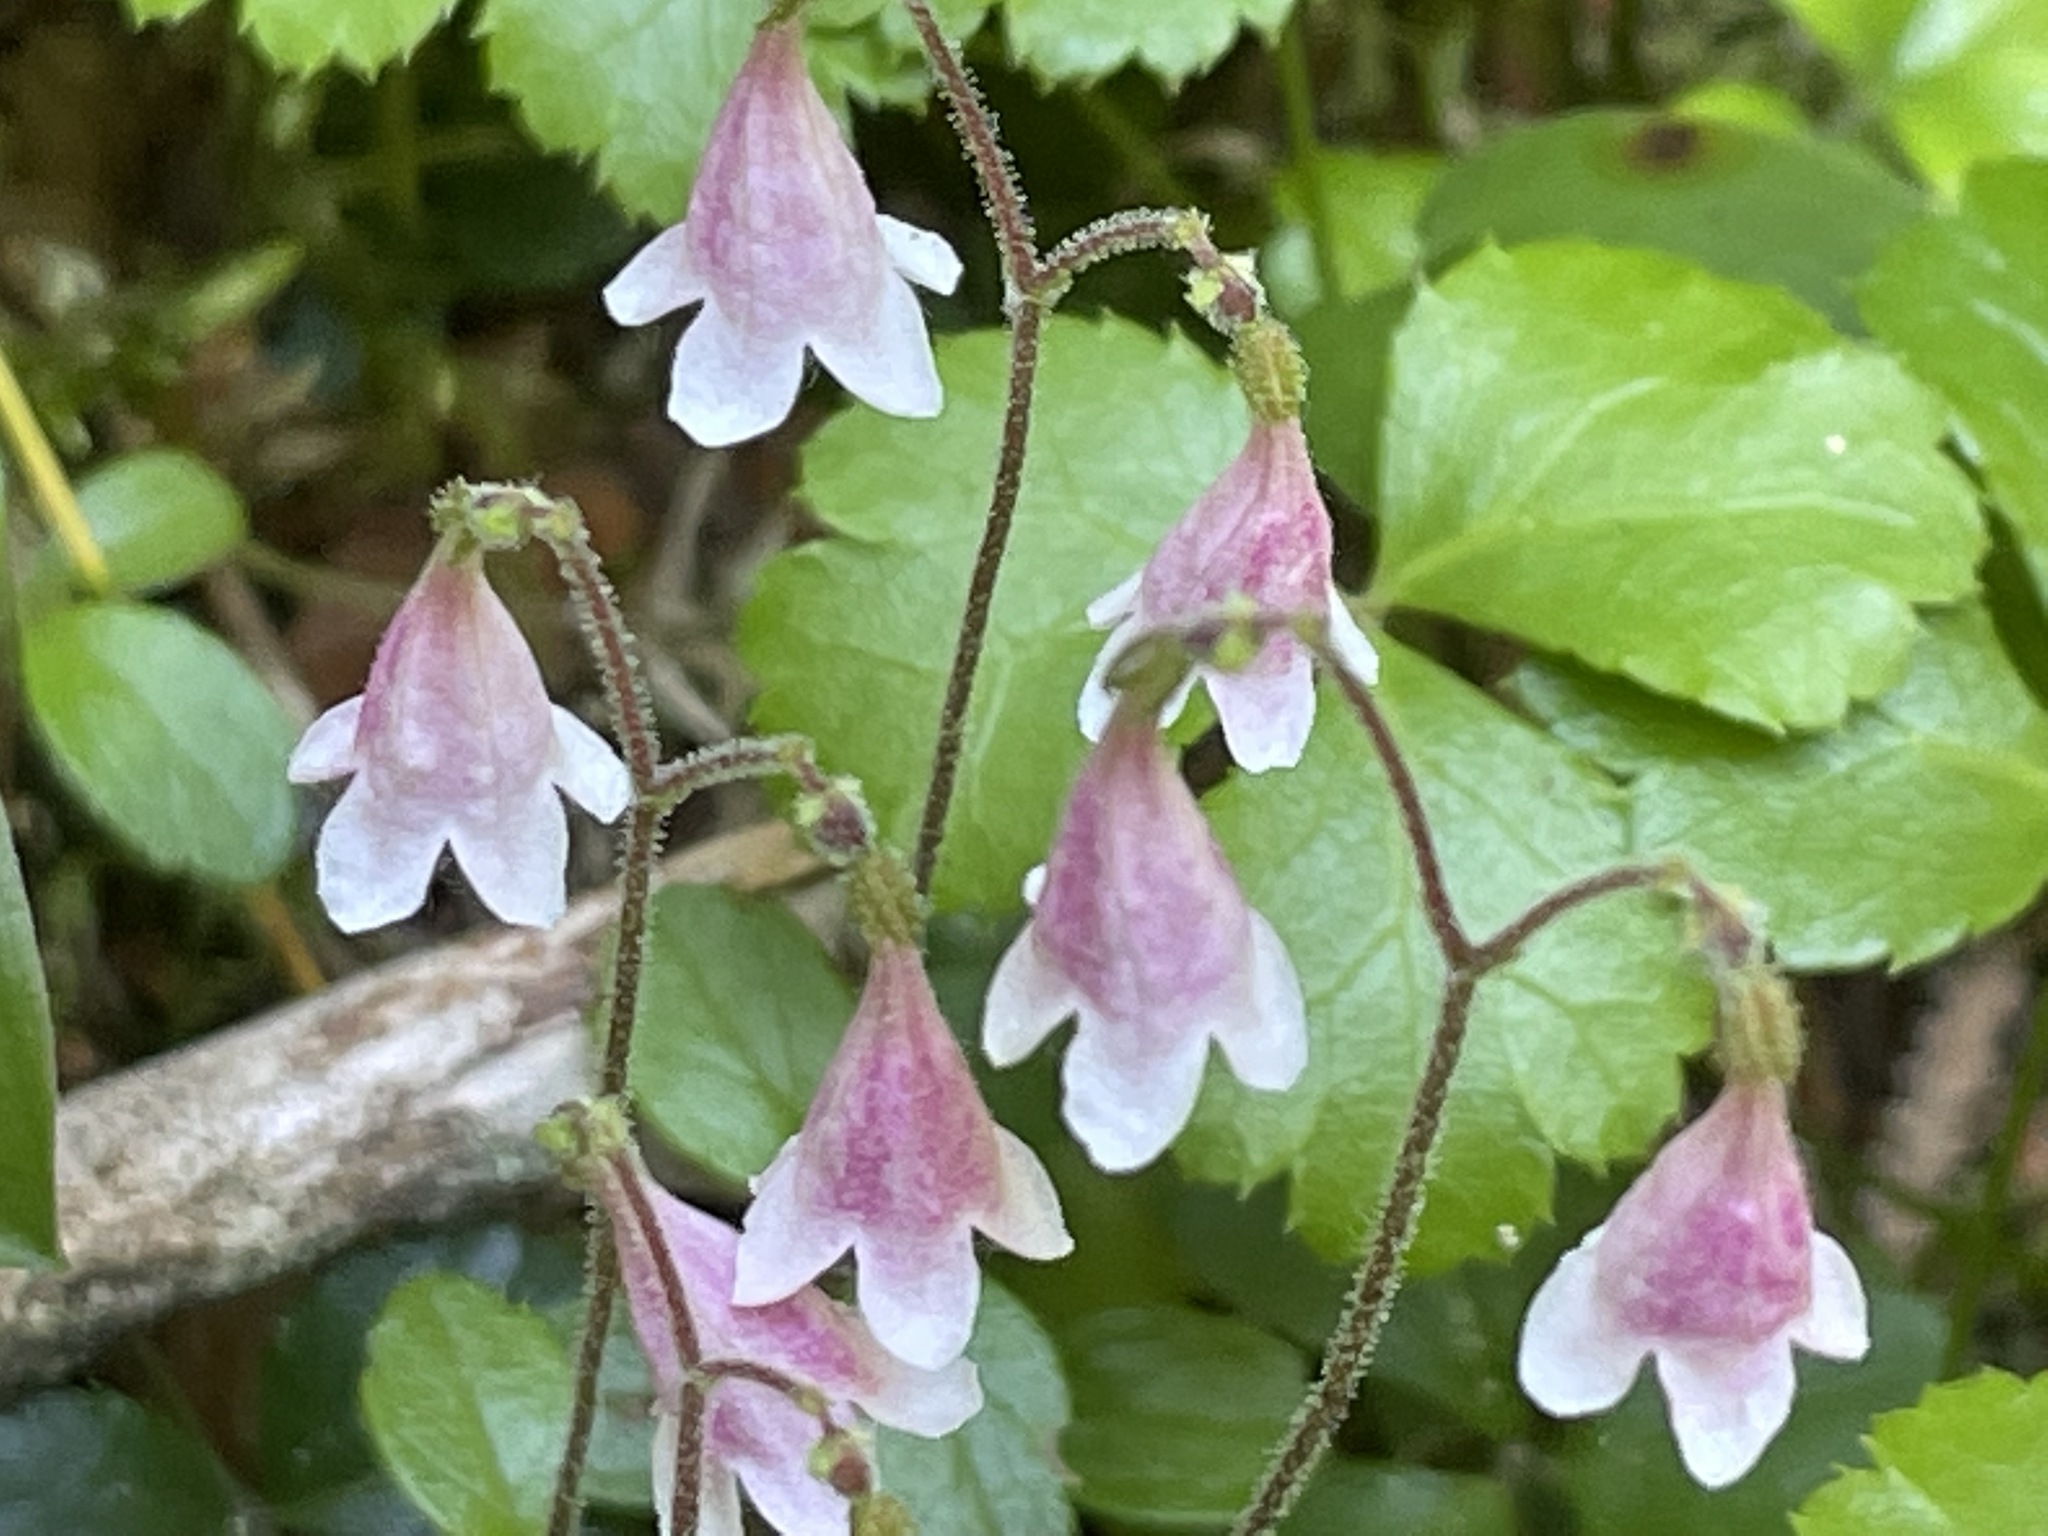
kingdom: Plantae
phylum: Tracheophyta
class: Magnoliopsida
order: Dipsacales
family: Caprifoliaceae
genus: Linnaea
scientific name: Linnaea borealis
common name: Twinflower
